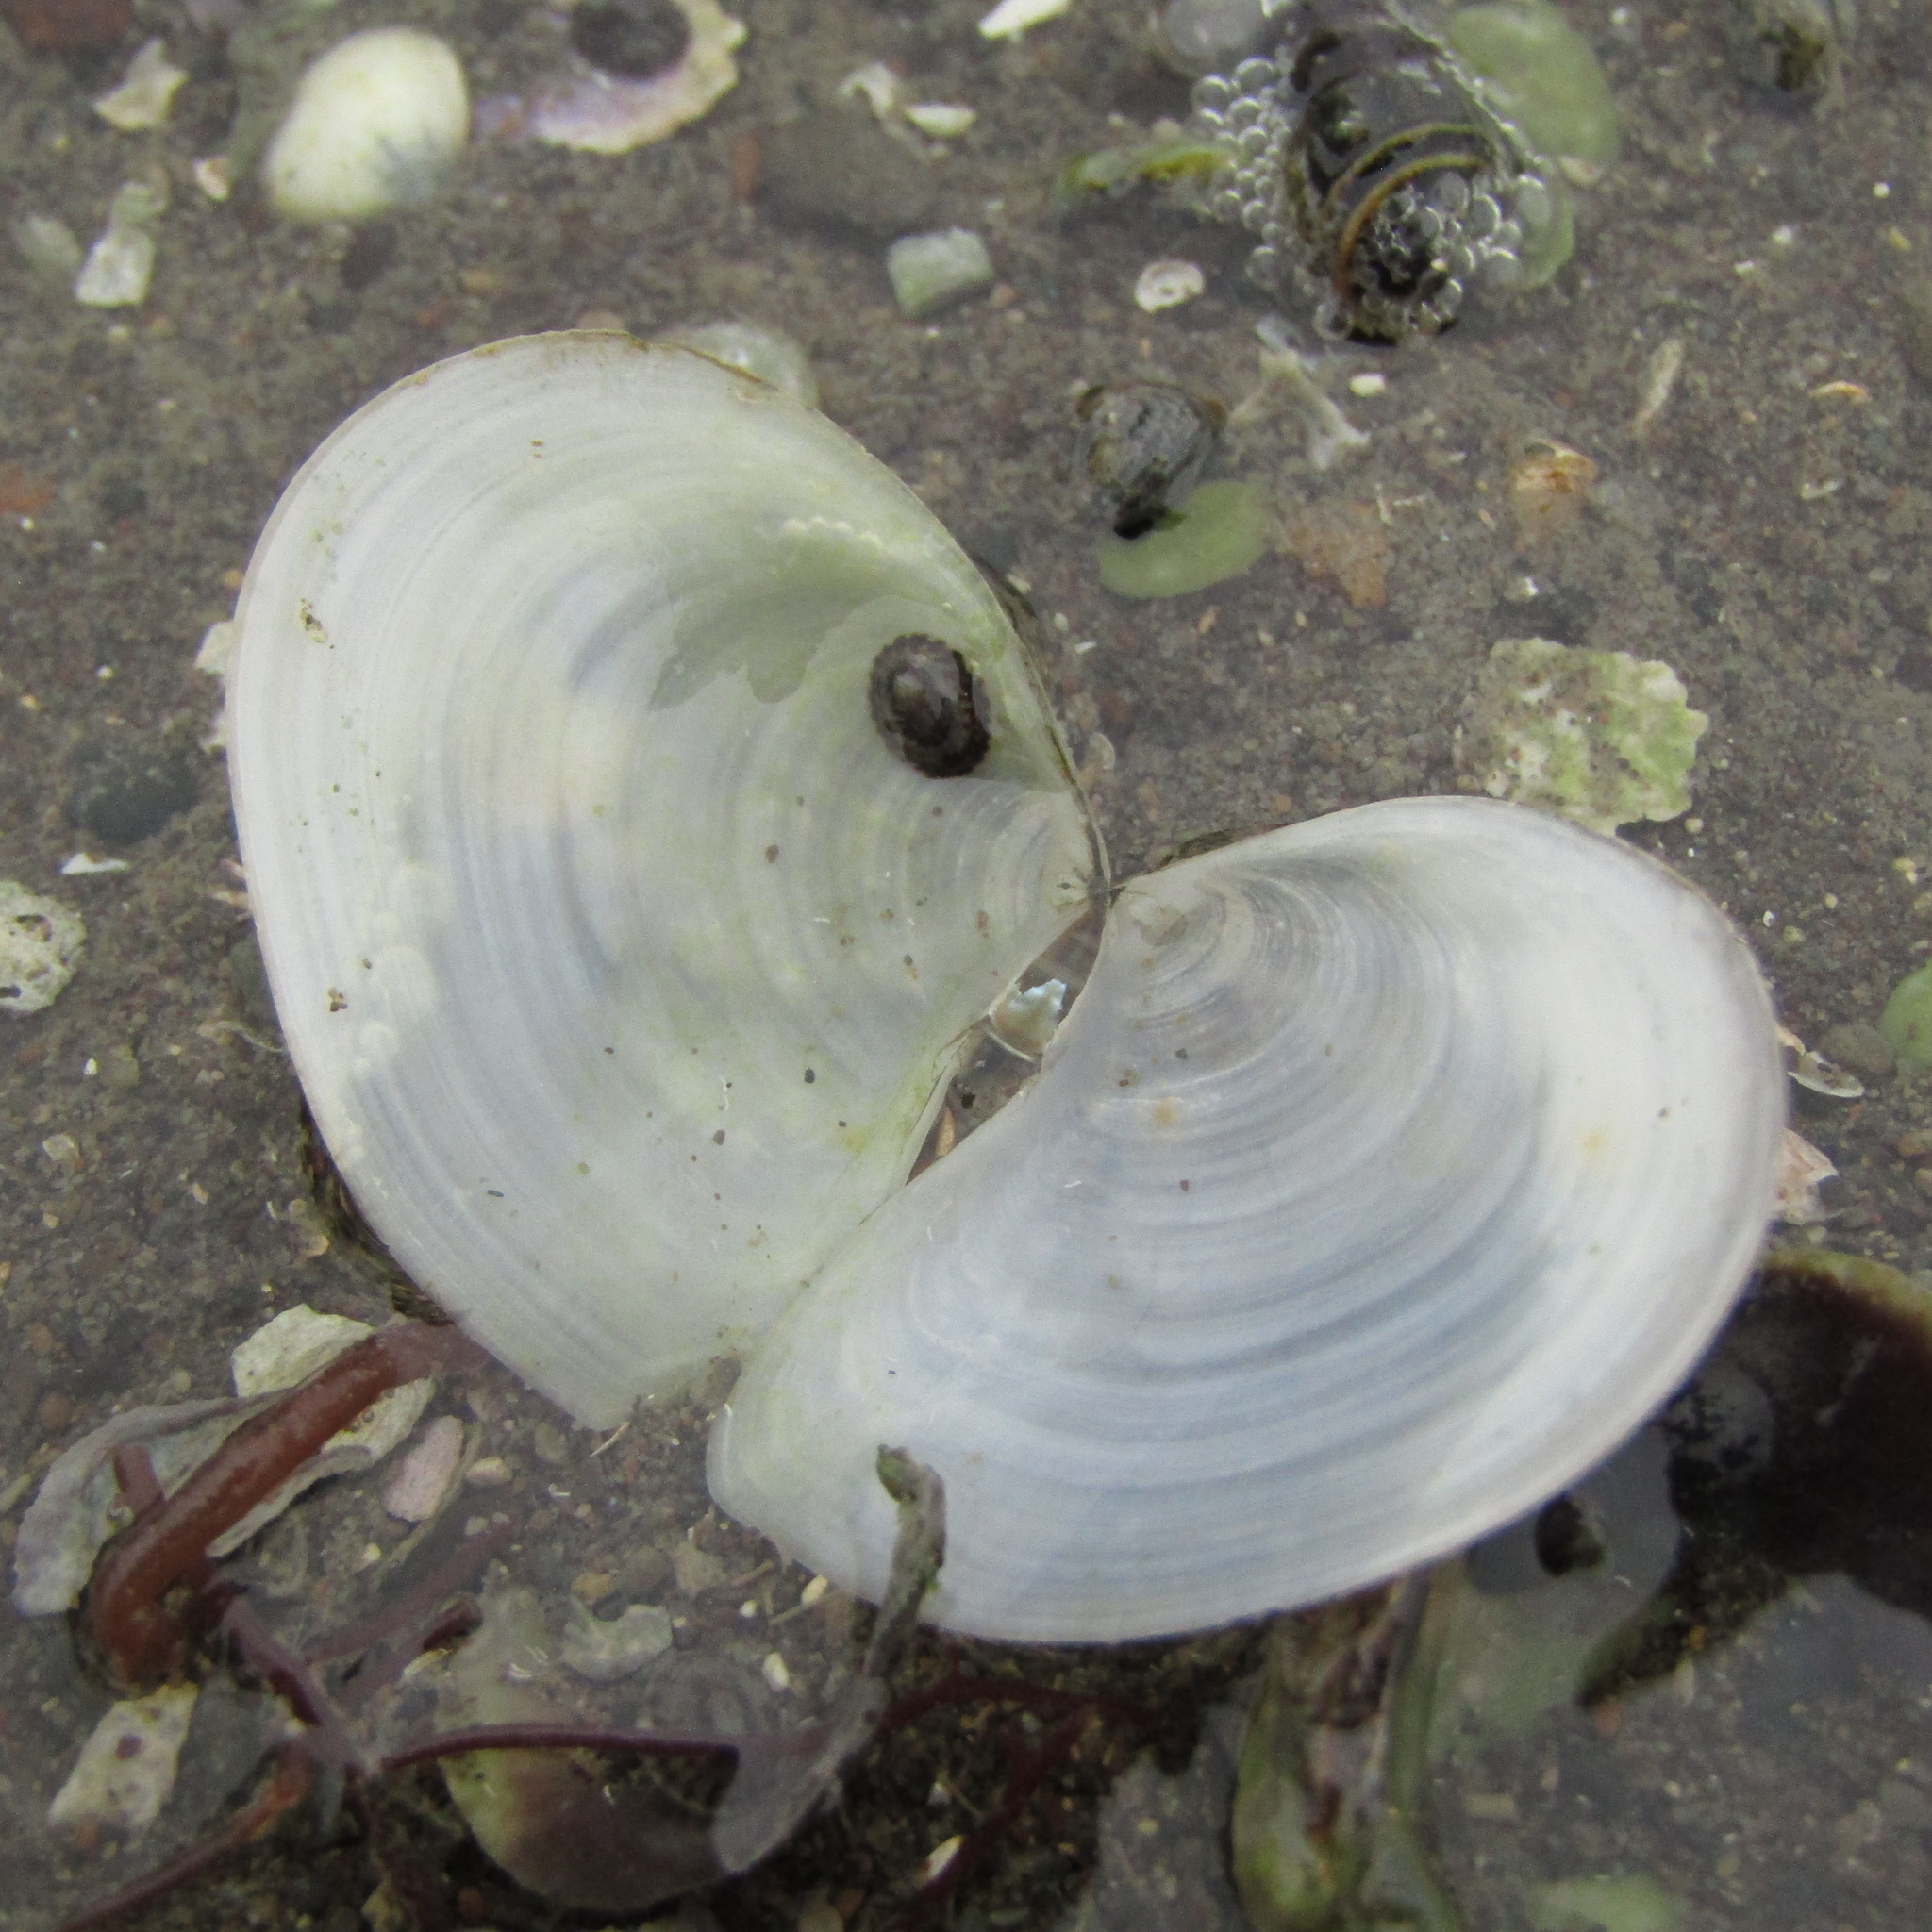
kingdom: Animalia
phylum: Mollusca
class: Bivalvia
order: Cardiida
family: Tellinidae
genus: Macomona
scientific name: Macomona liliana
